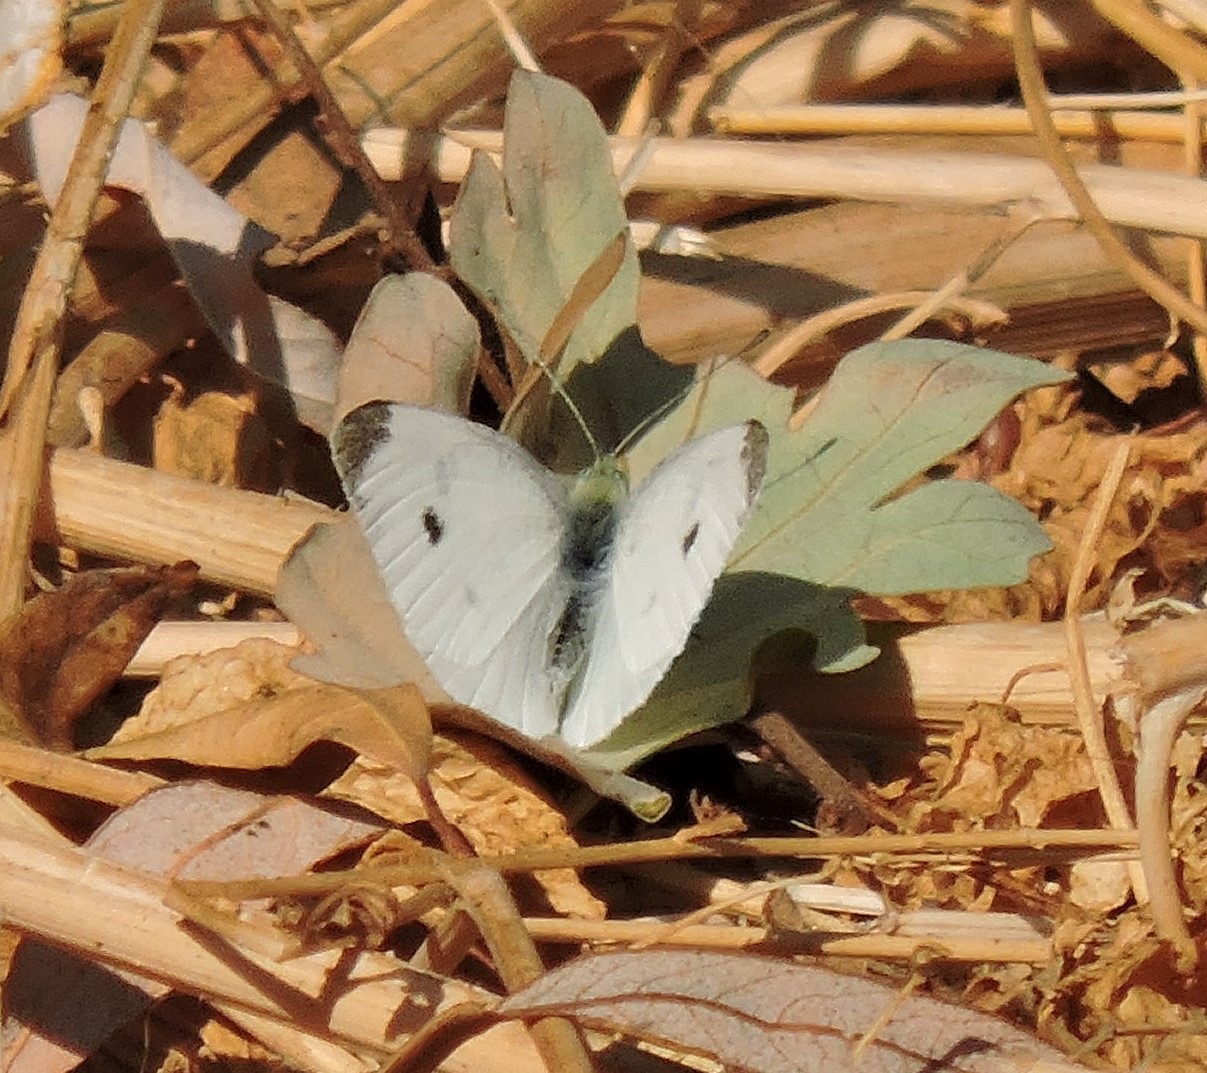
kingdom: Animalia
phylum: Arthropoda
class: Insecta
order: Lepidoptera
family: Pieridae
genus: Pieris
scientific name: Pieris rapae
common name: Small white
